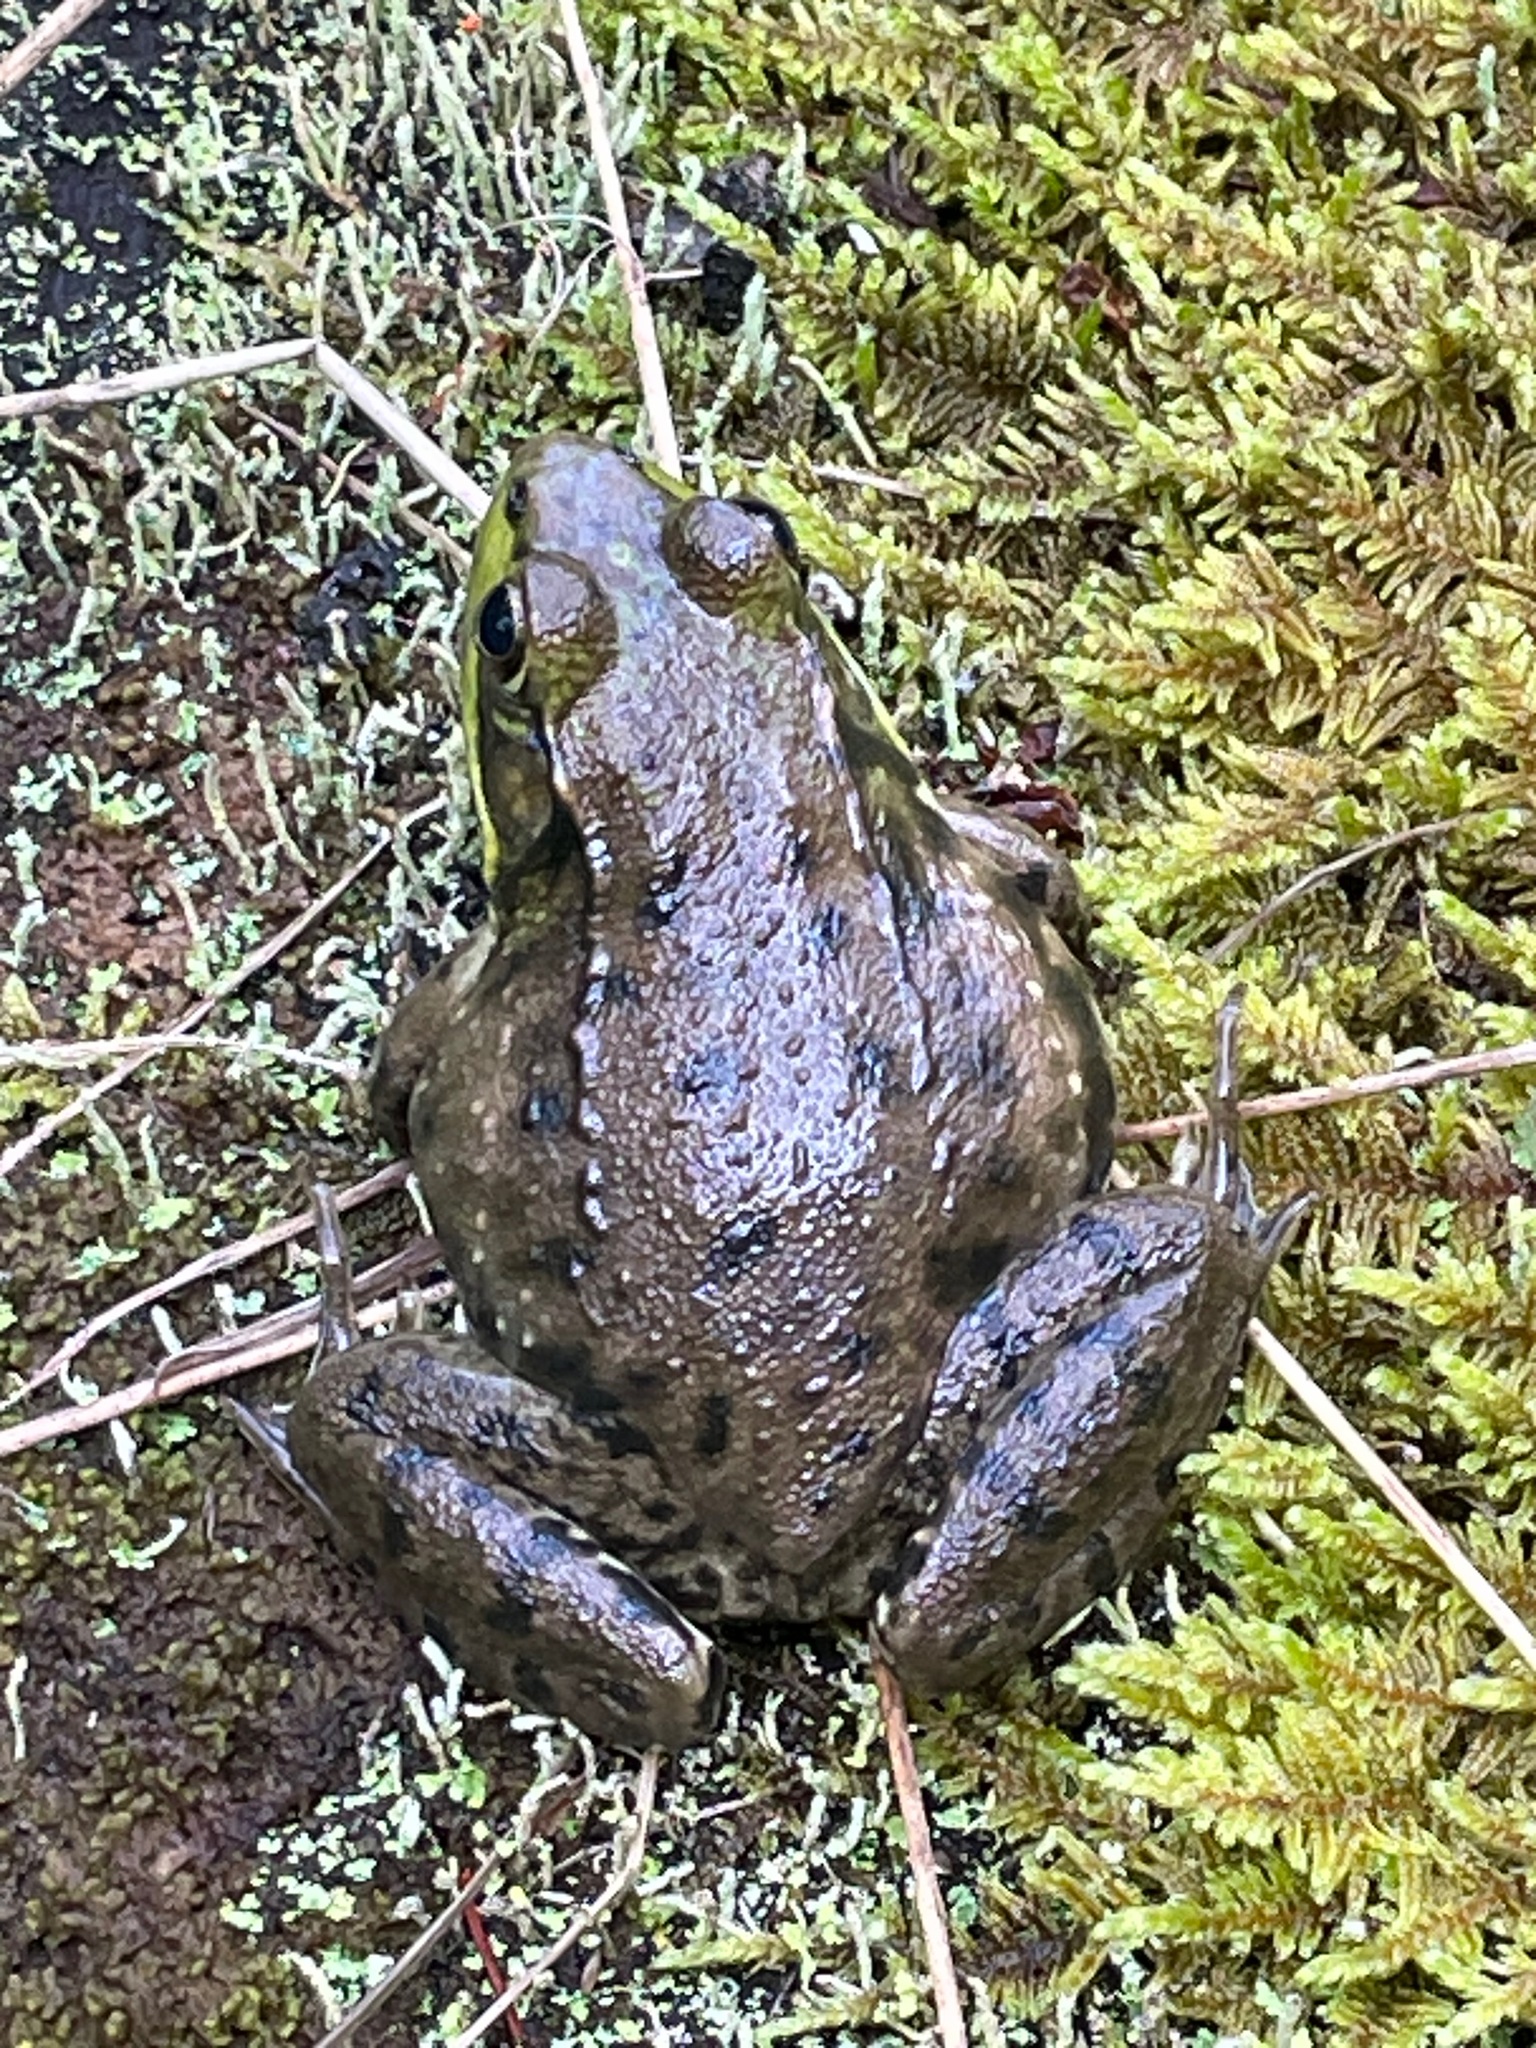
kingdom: Animalia
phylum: Chordata
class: Amphibia
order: Anura
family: Ranidae
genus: Lithobates
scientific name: Lithobates clamitans
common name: Green frog
